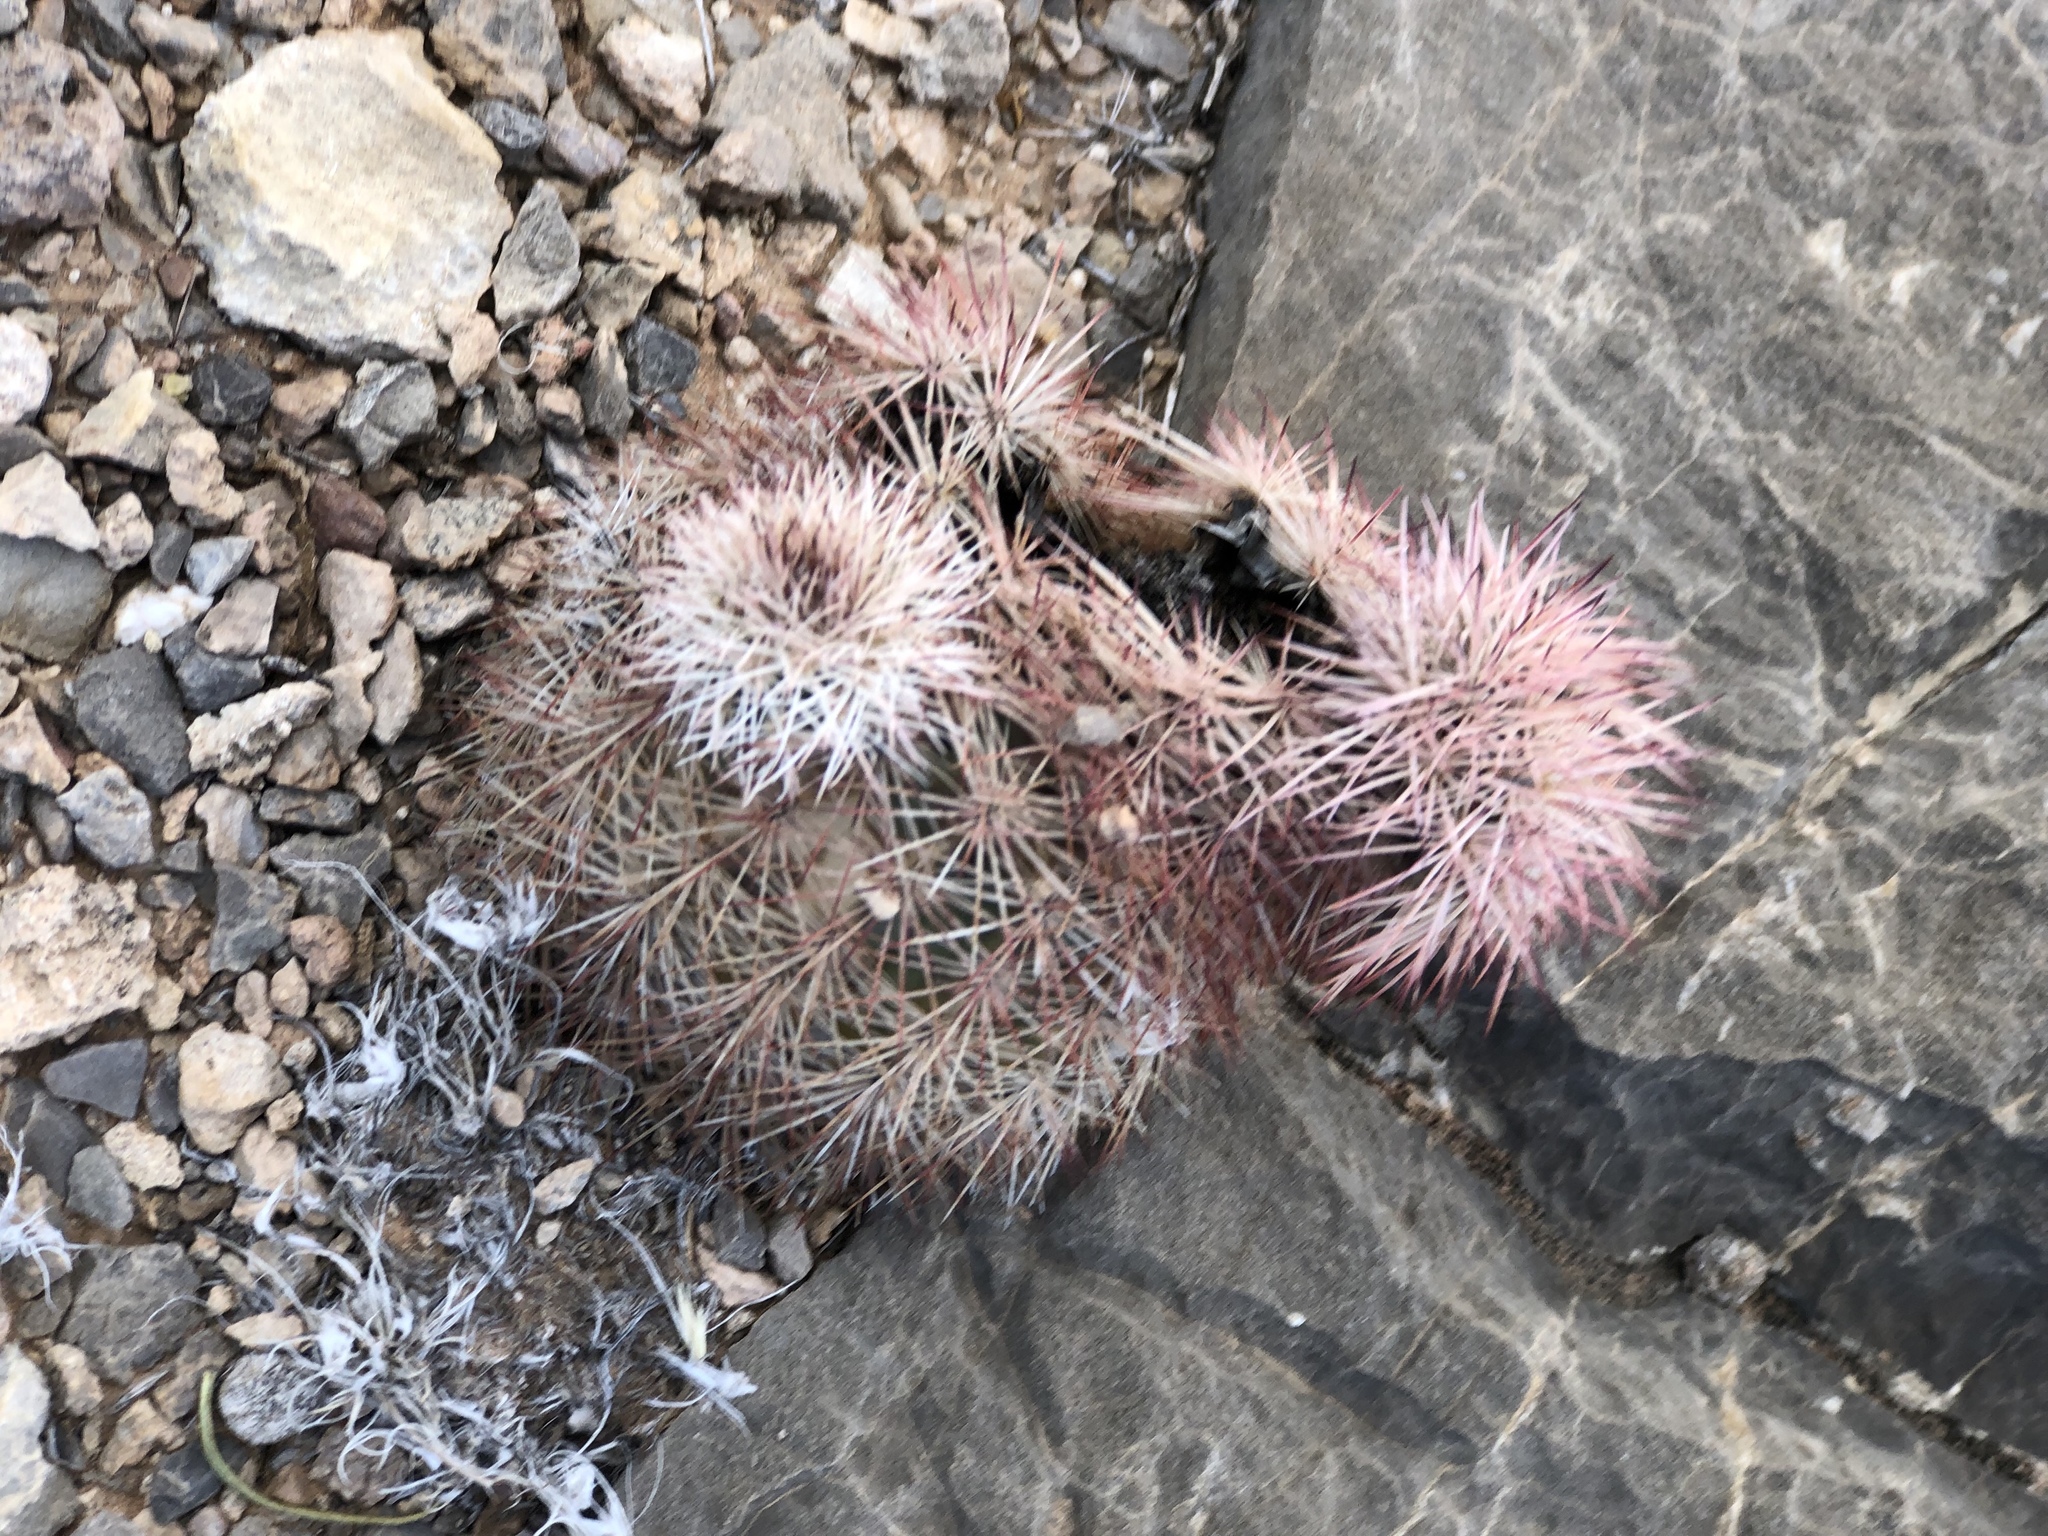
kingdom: Plantae
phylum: Tracheophyta
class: Magnoliopsida
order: Caryophyllales
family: Cactaceae
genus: Echinocereus
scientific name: Echinocereus dasyacanthus
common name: Spiny hedgehog cactus
